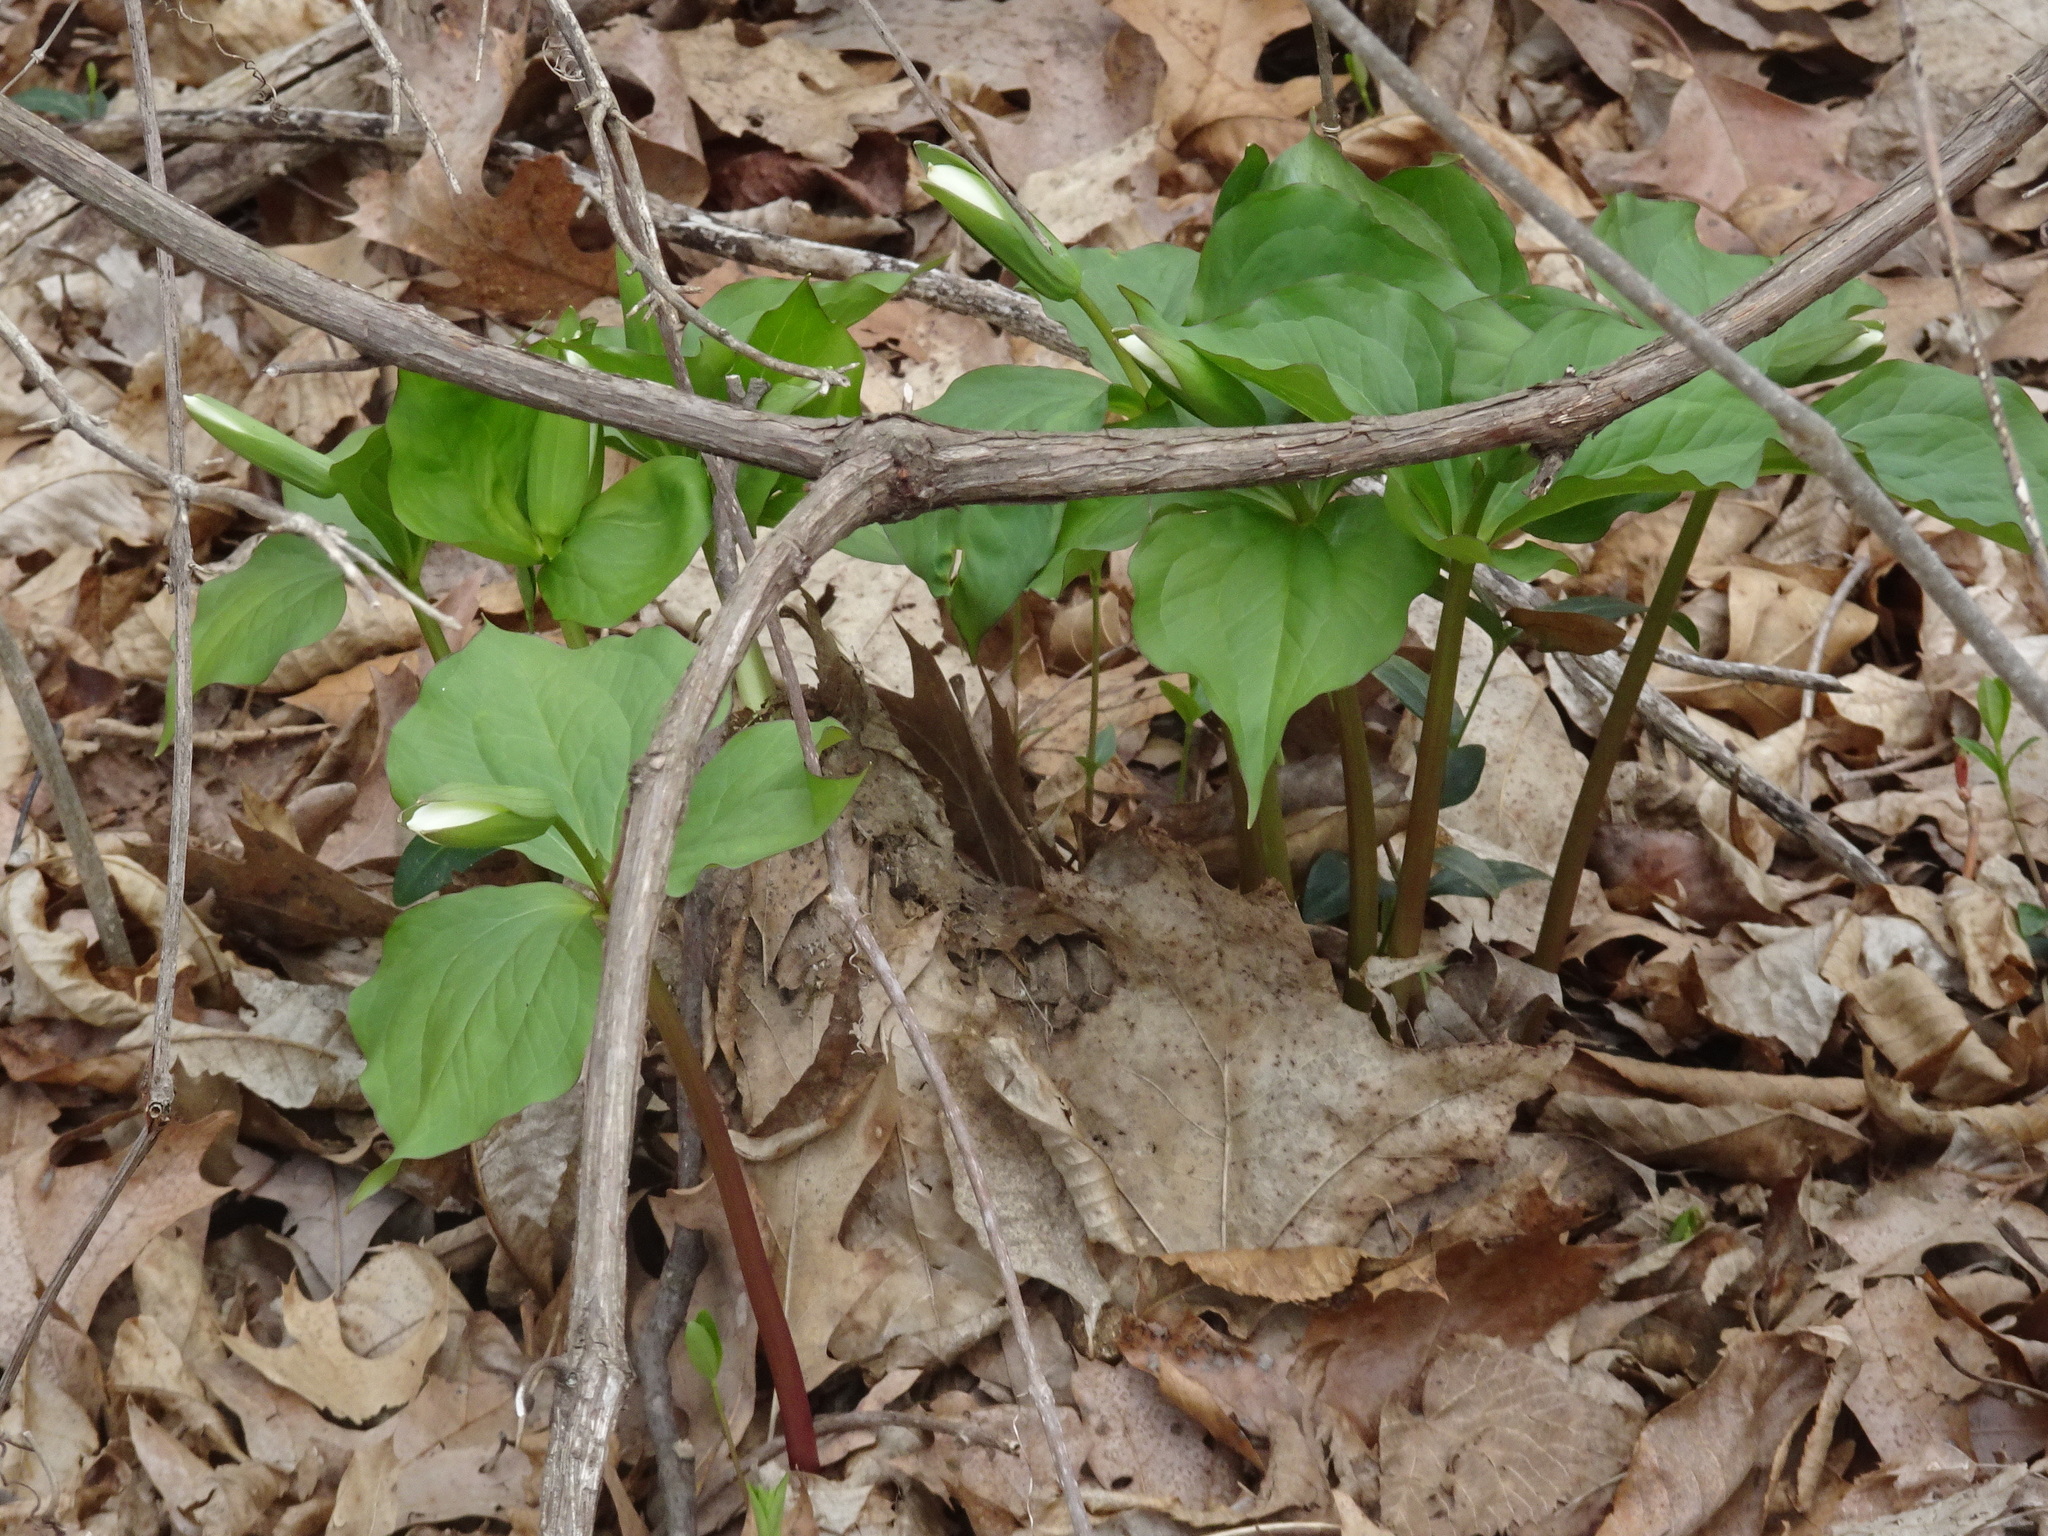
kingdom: Plantae
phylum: Tracheophyta
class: Liliopsida
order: Liliales
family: Melanthiaceae
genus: Trillium
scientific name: Trillium grandiflorum
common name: Great white trillium
